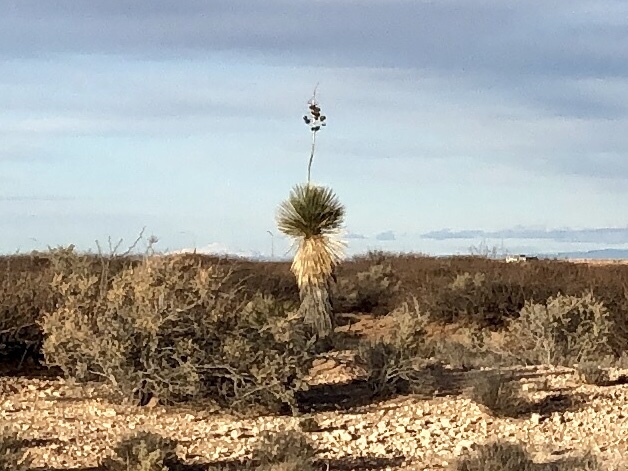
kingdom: Plantae
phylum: Tracheophyta
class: Liliopsida
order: Asparagales
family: Asparagaceae
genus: Yucca
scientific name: Yucca elata
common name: Palmella
